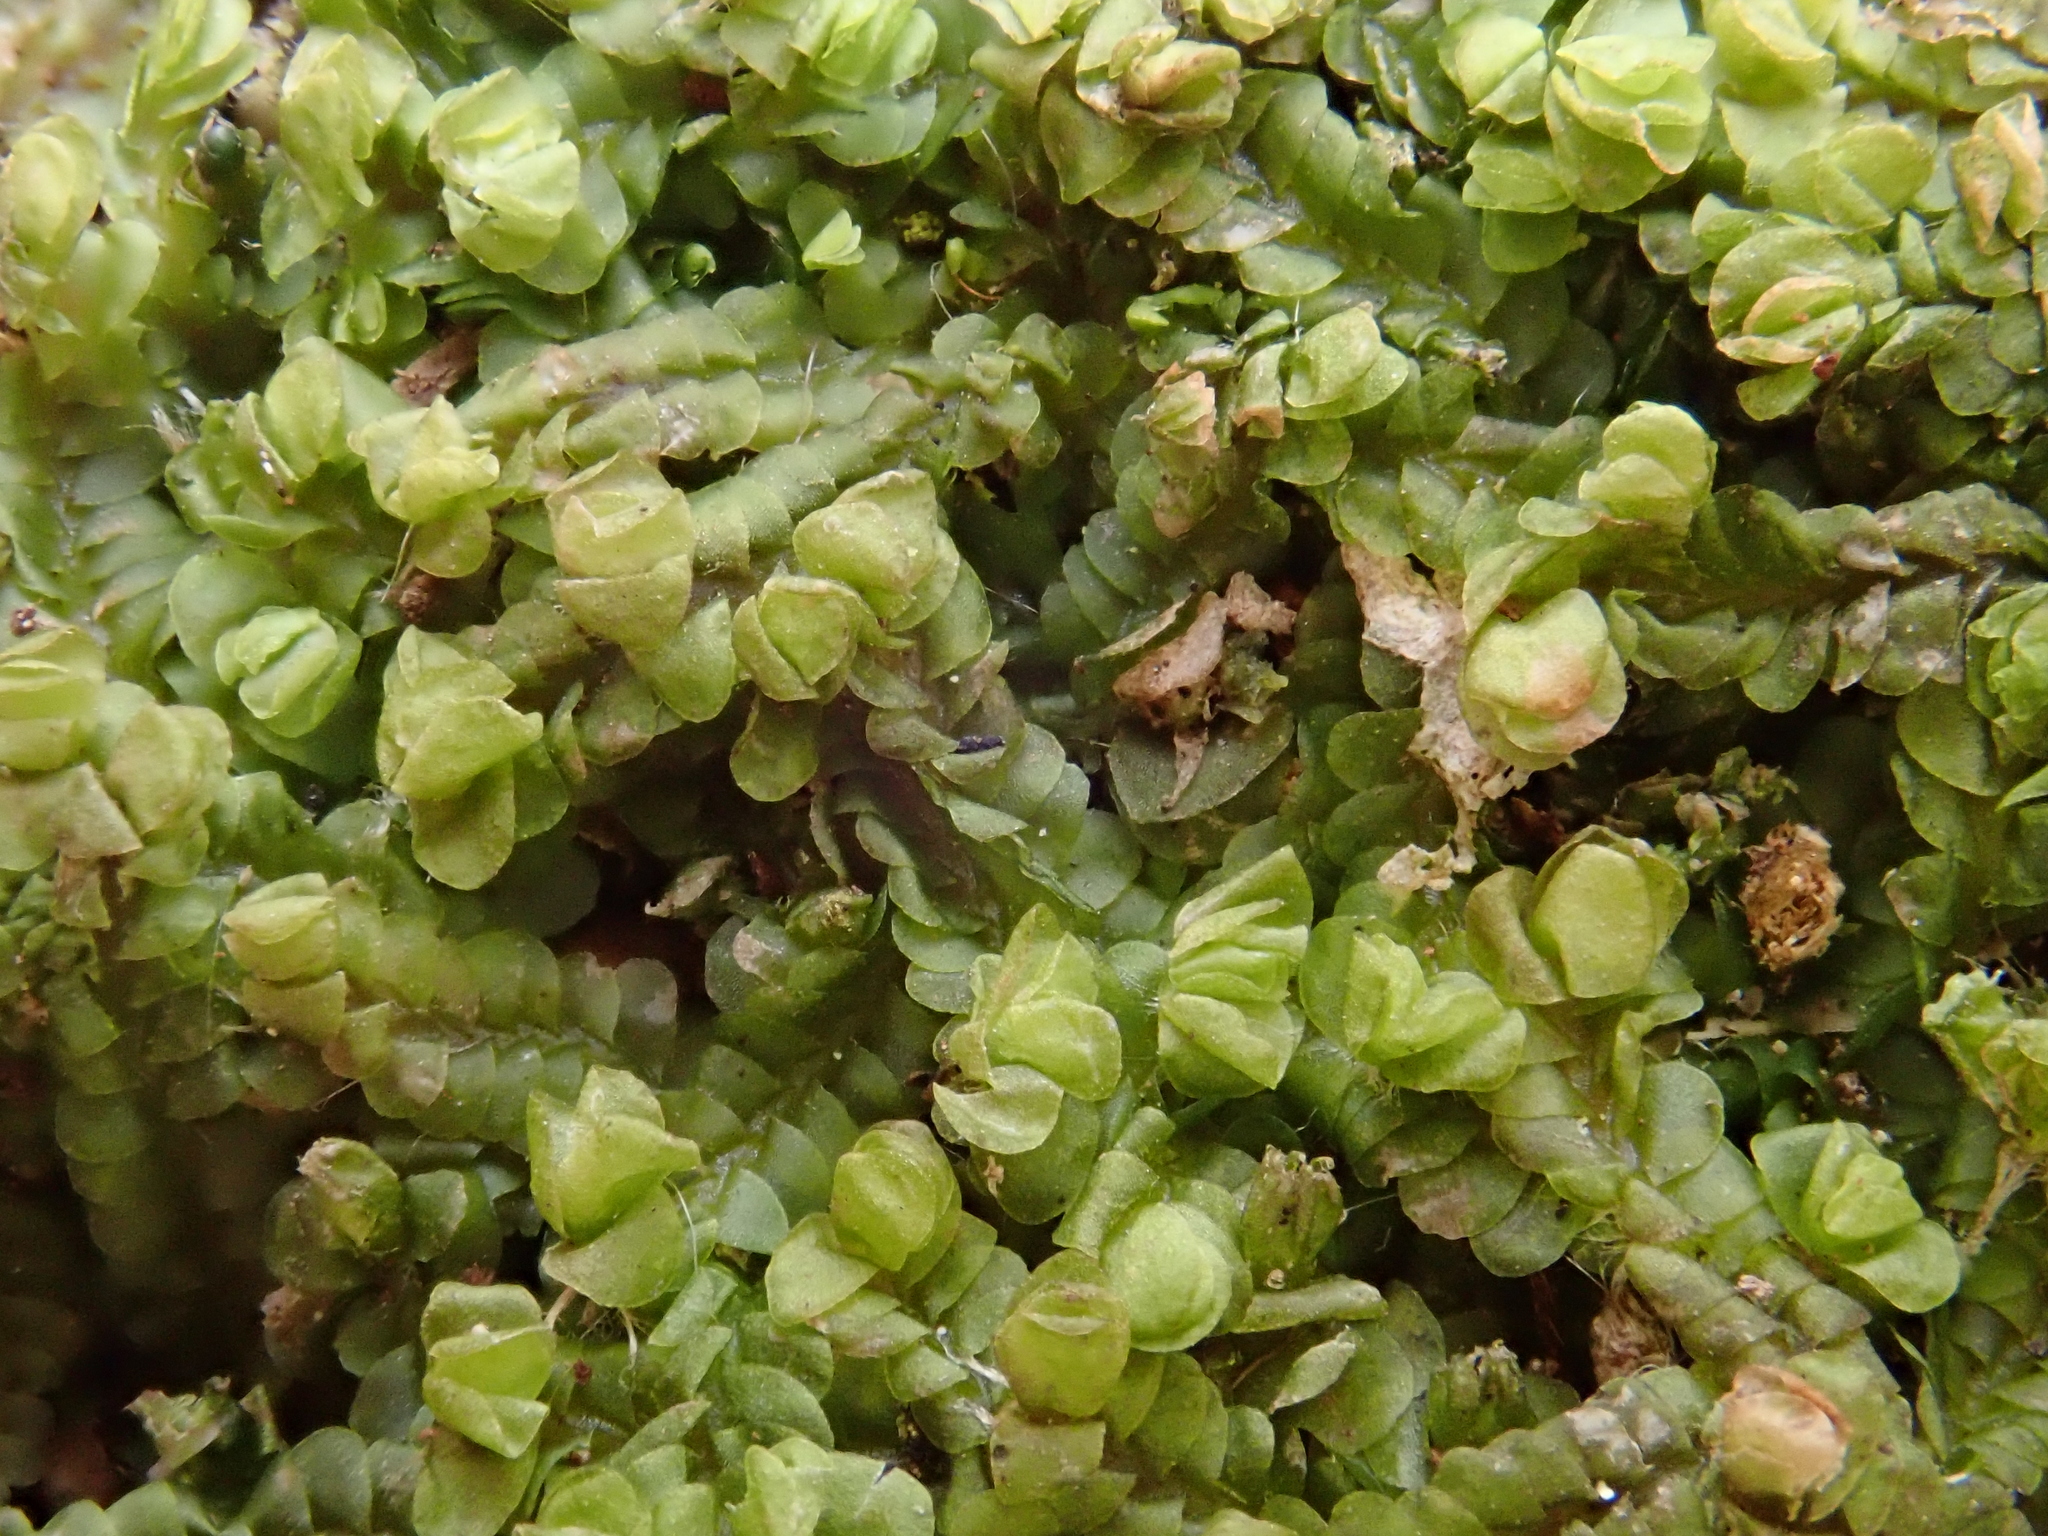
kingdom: Plantae
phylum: Marchantiophyta
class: Jungermanniopsida
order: Jungermanniales
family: Adelanthaceae
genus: Syzygiella
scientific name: Syzygiella autumnalis
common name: Jameson's liverwort
